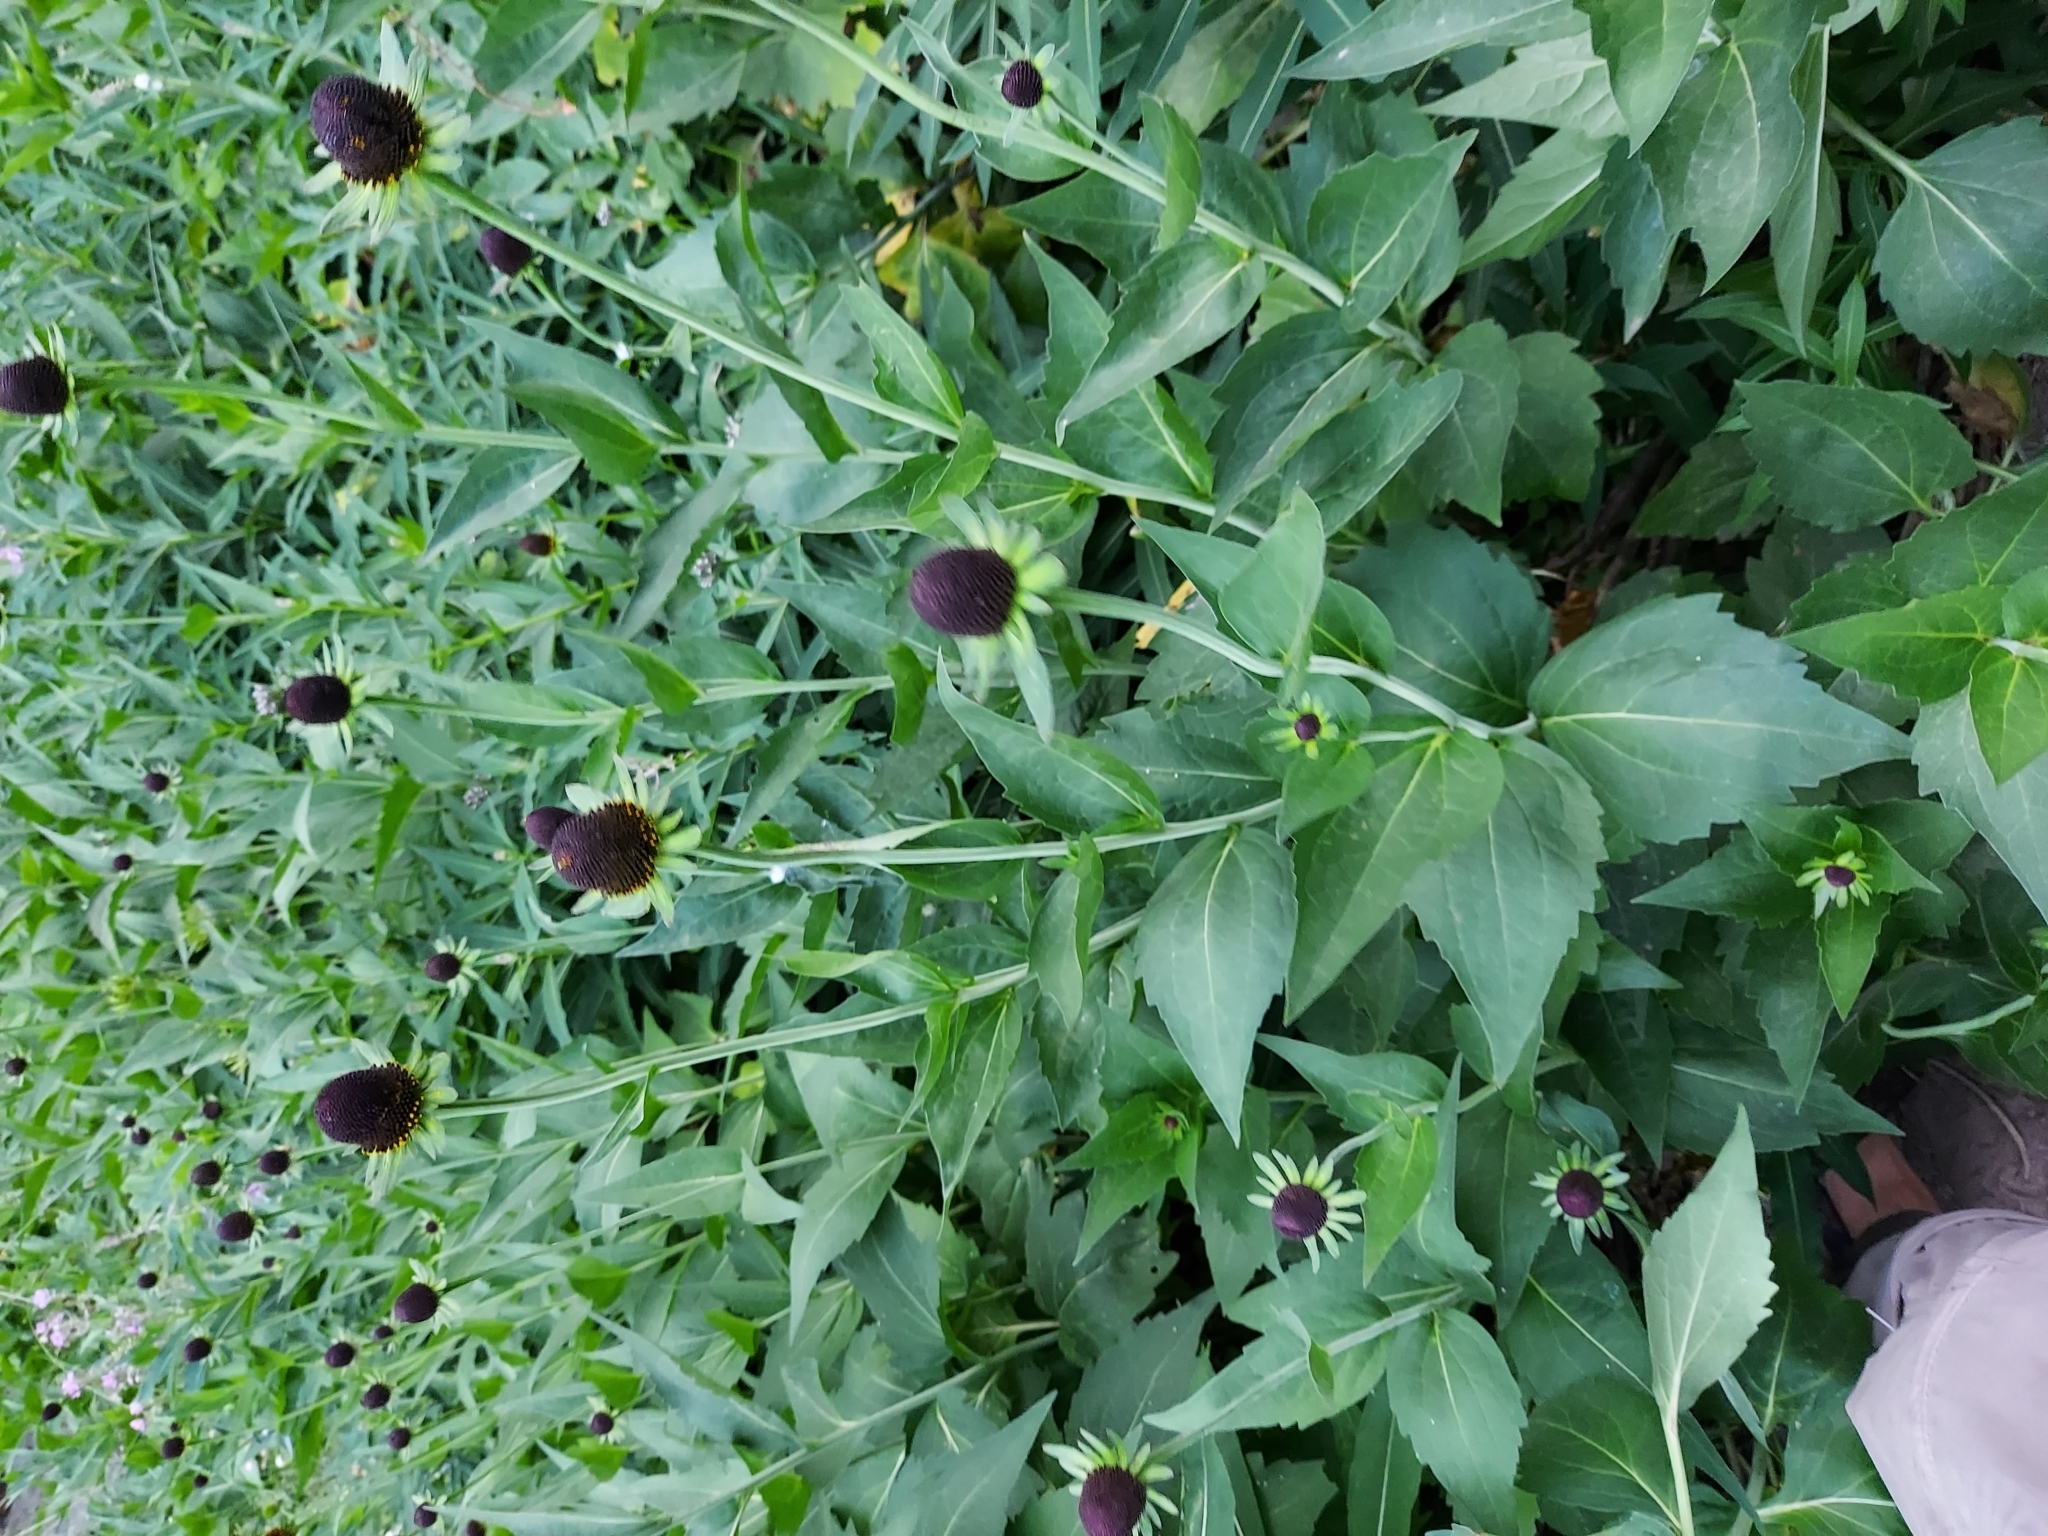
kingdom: Plantae
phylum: Tracheophyta
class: Magnoliopsida
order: Asterales
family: Asteraceae
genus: Rudbeckia
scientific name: Rudbeckia occidentalis
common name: Western coneflower
